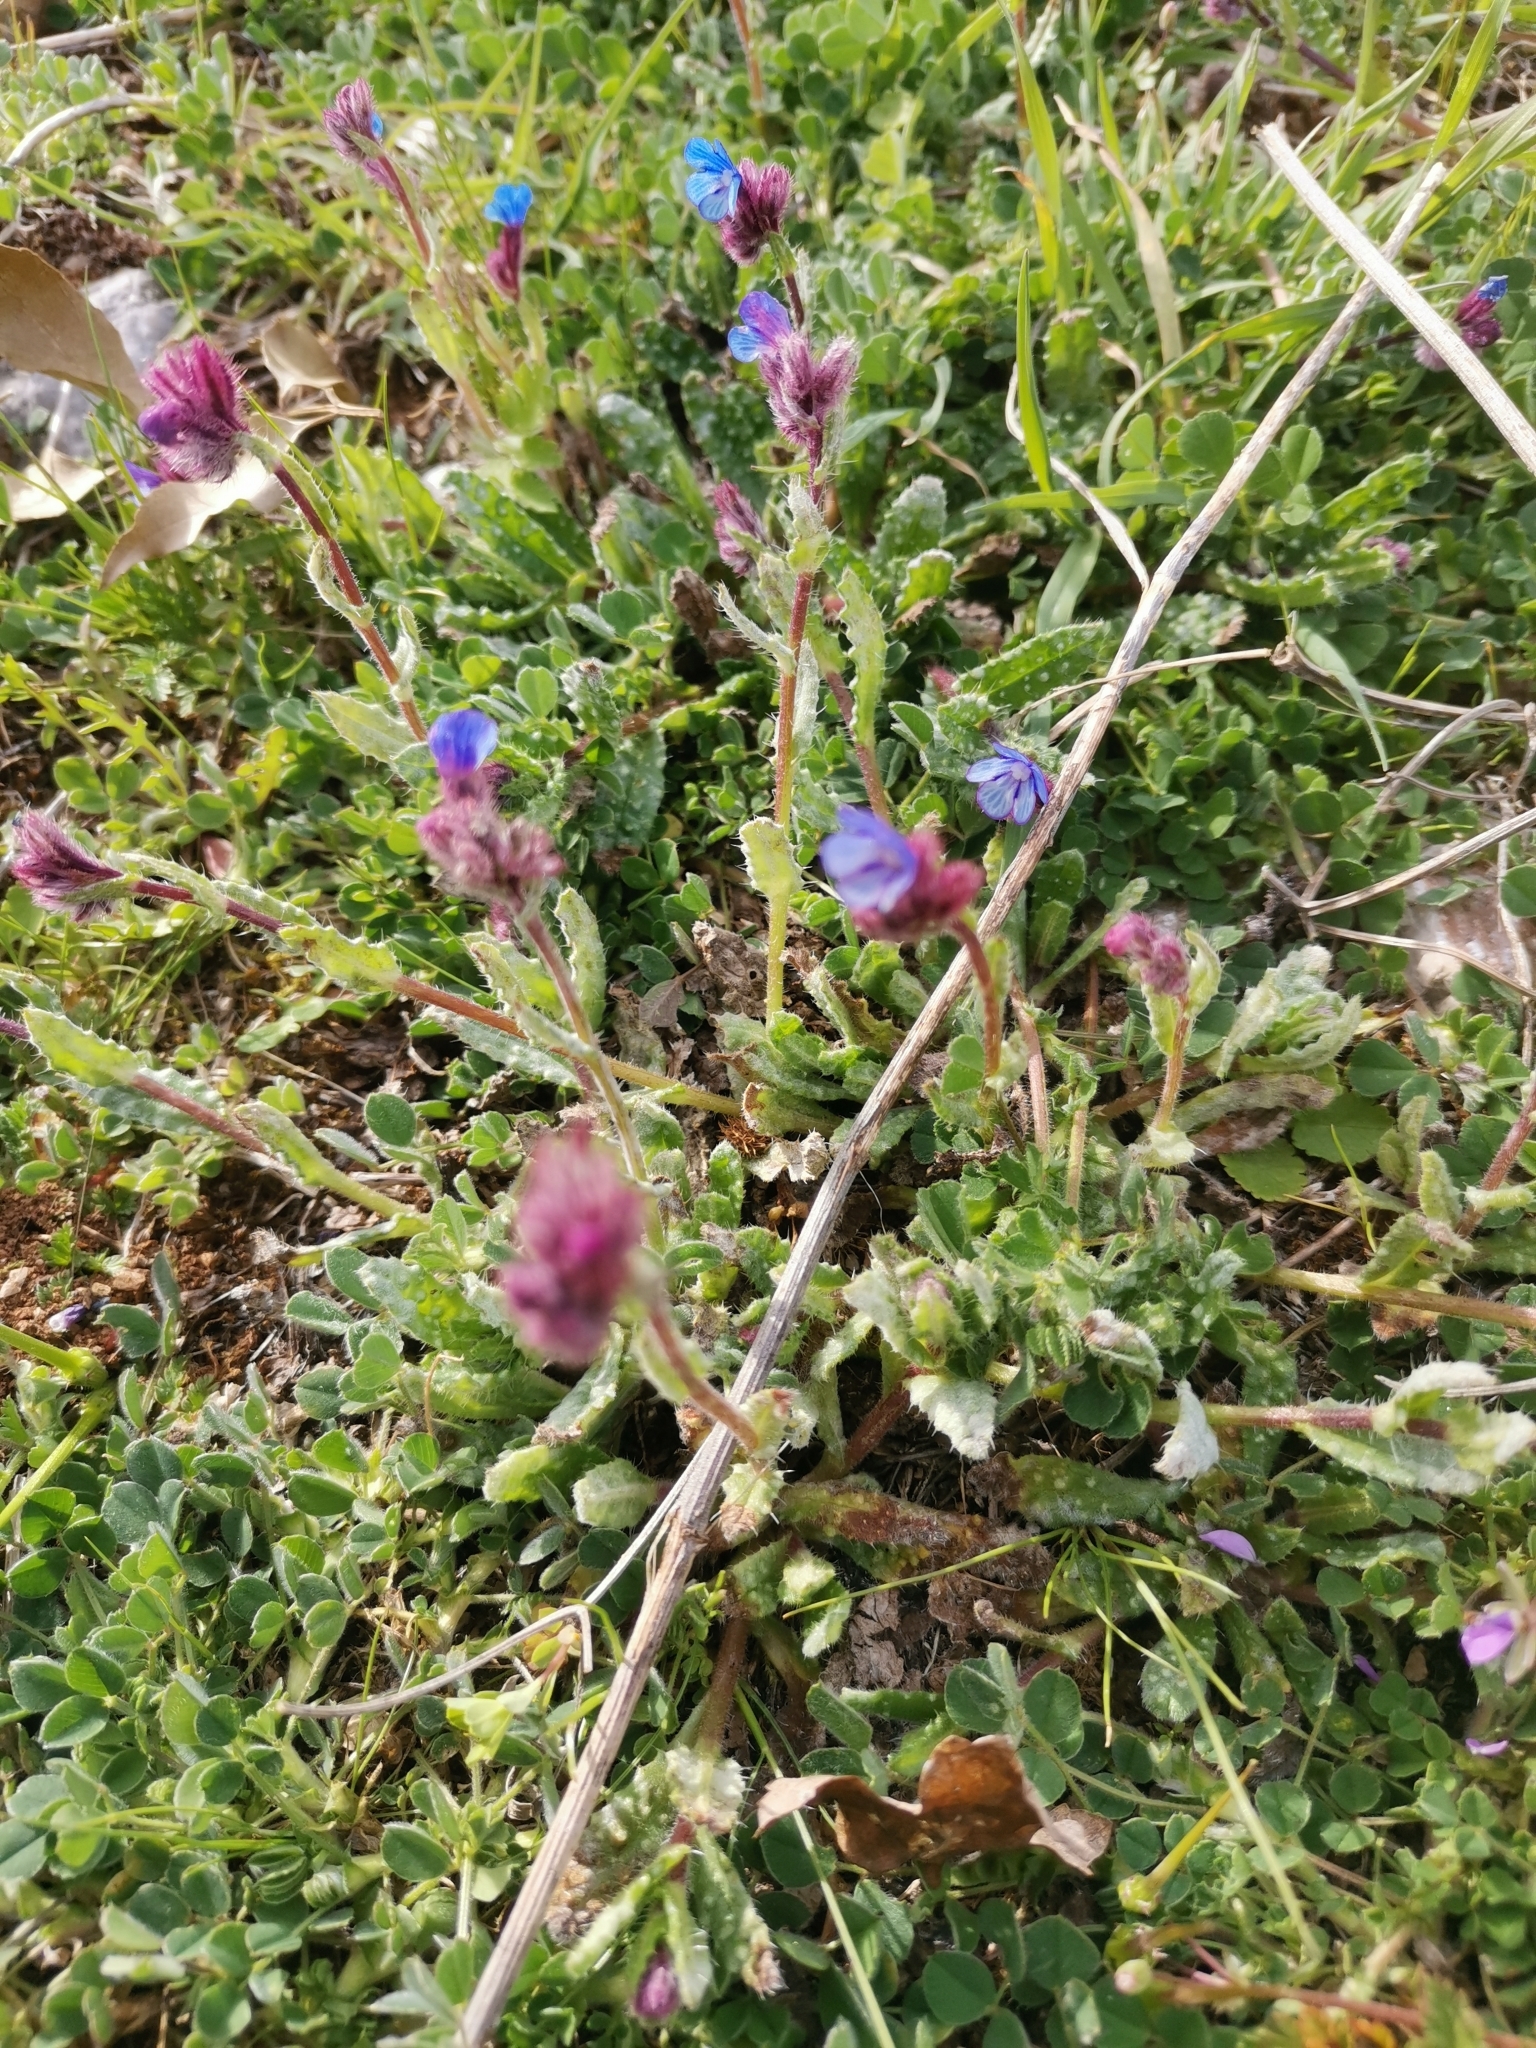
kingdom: Plantae
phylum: Tracheophyta
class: Magnoliopsida
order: Boraginales
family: Boraginaceae
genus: Anchusella
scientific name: Anchusella cretica
